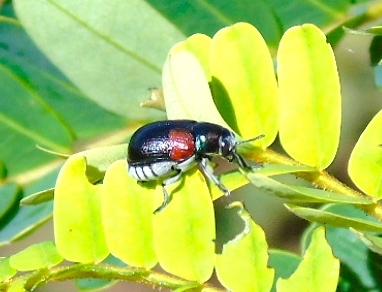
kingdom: Animalia
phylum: Arthropoda
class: Insecta
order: Coleoptera
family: Chrysomelidae
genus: Megalostomis
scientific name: Megalostomis pyropyga
